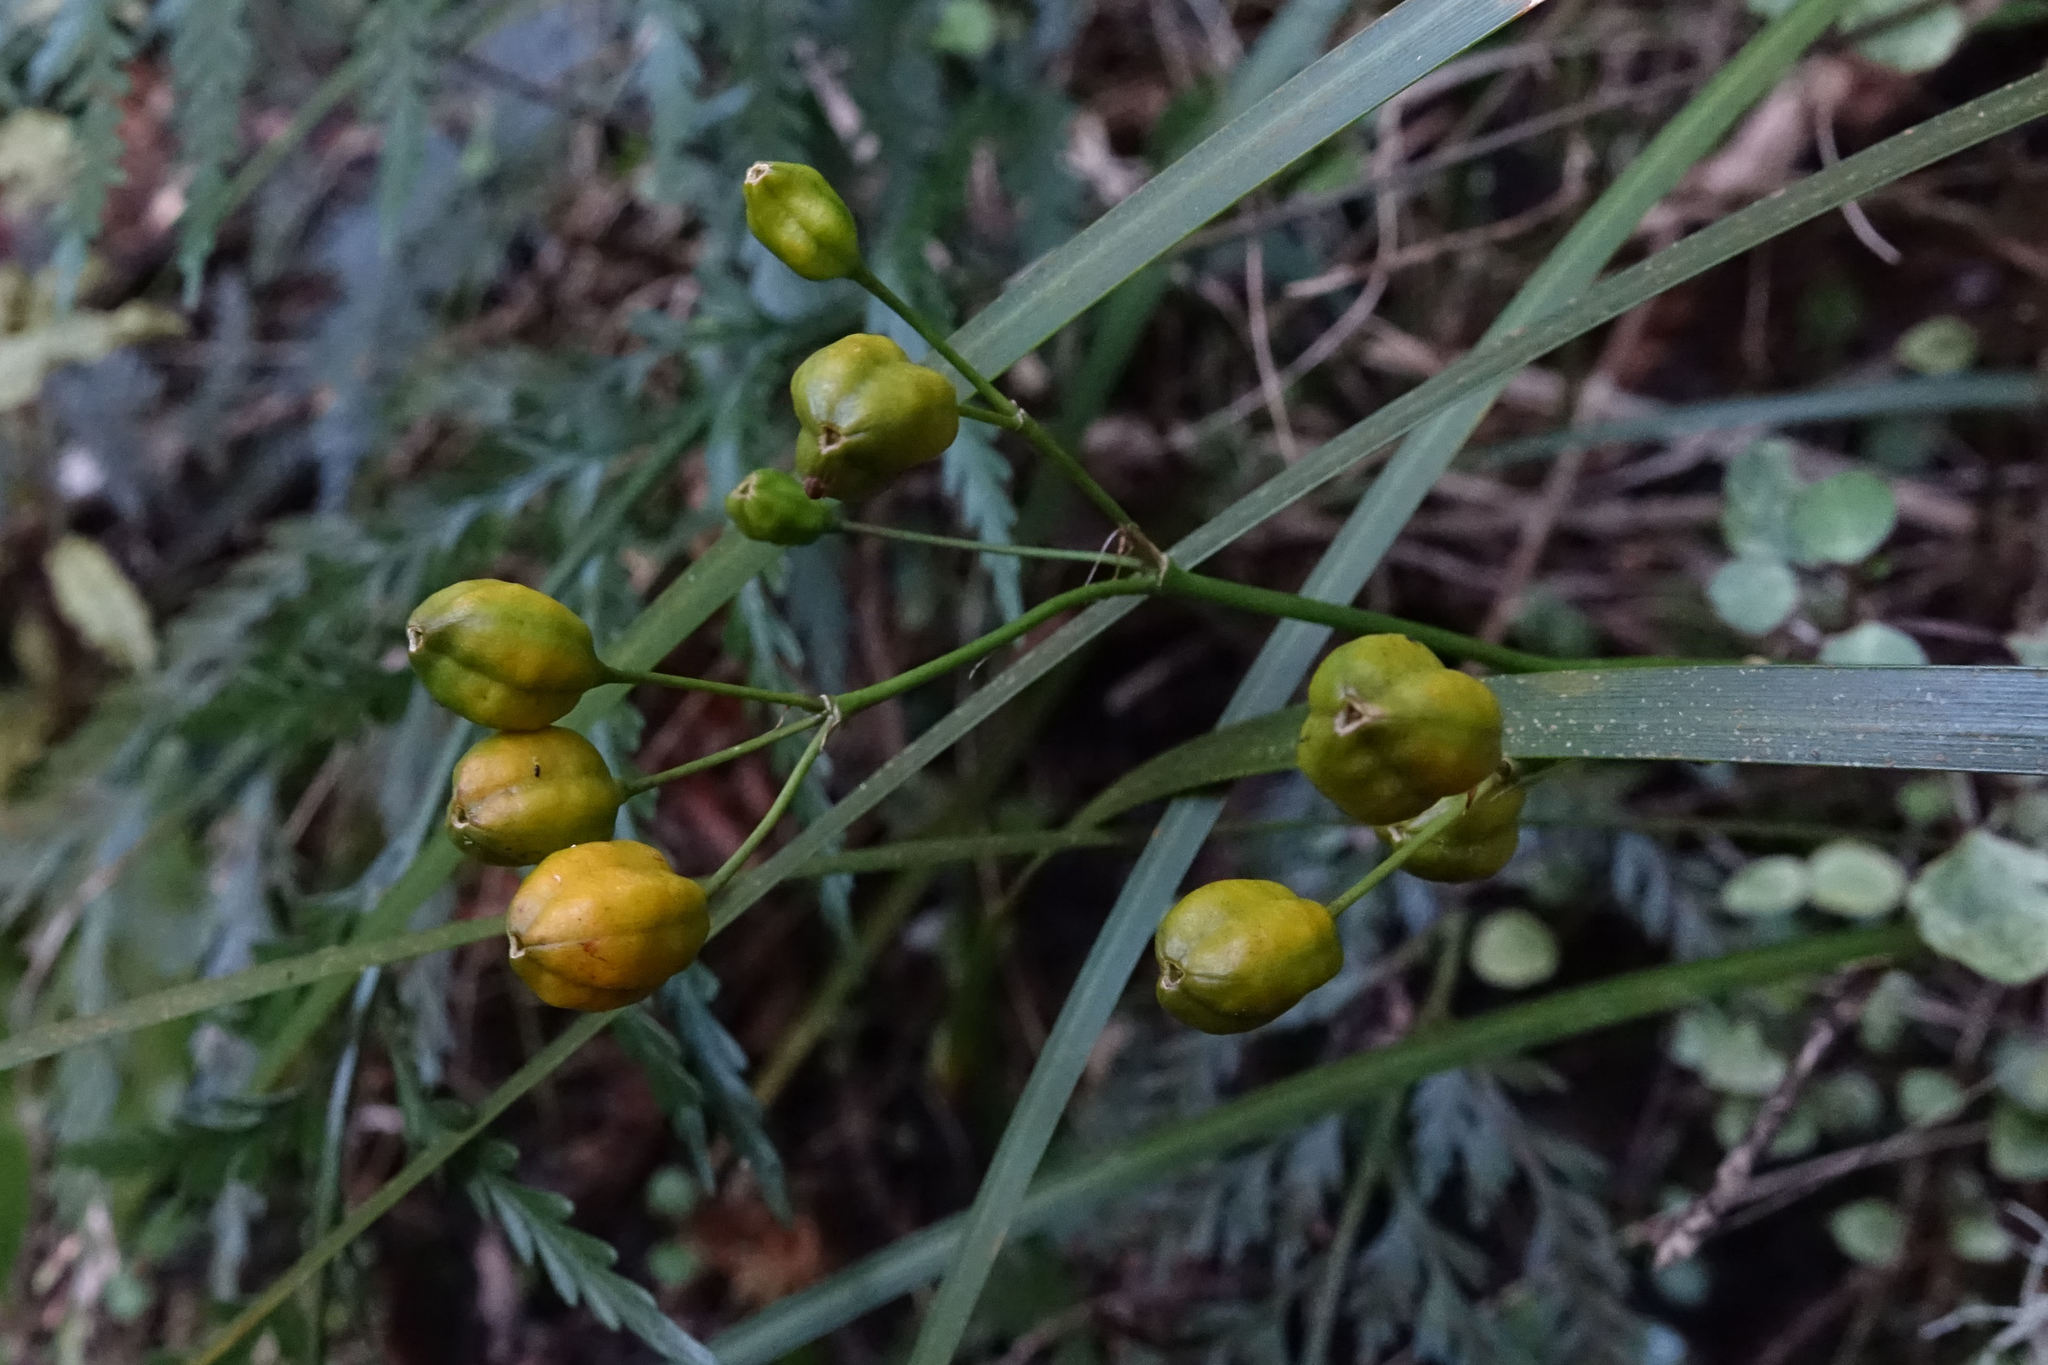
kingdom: Plantae
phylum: Tracheophyta
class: Liliopsida
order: Asparagales
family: Iridaceae
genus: Libertia
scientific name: Libertia ixioides
